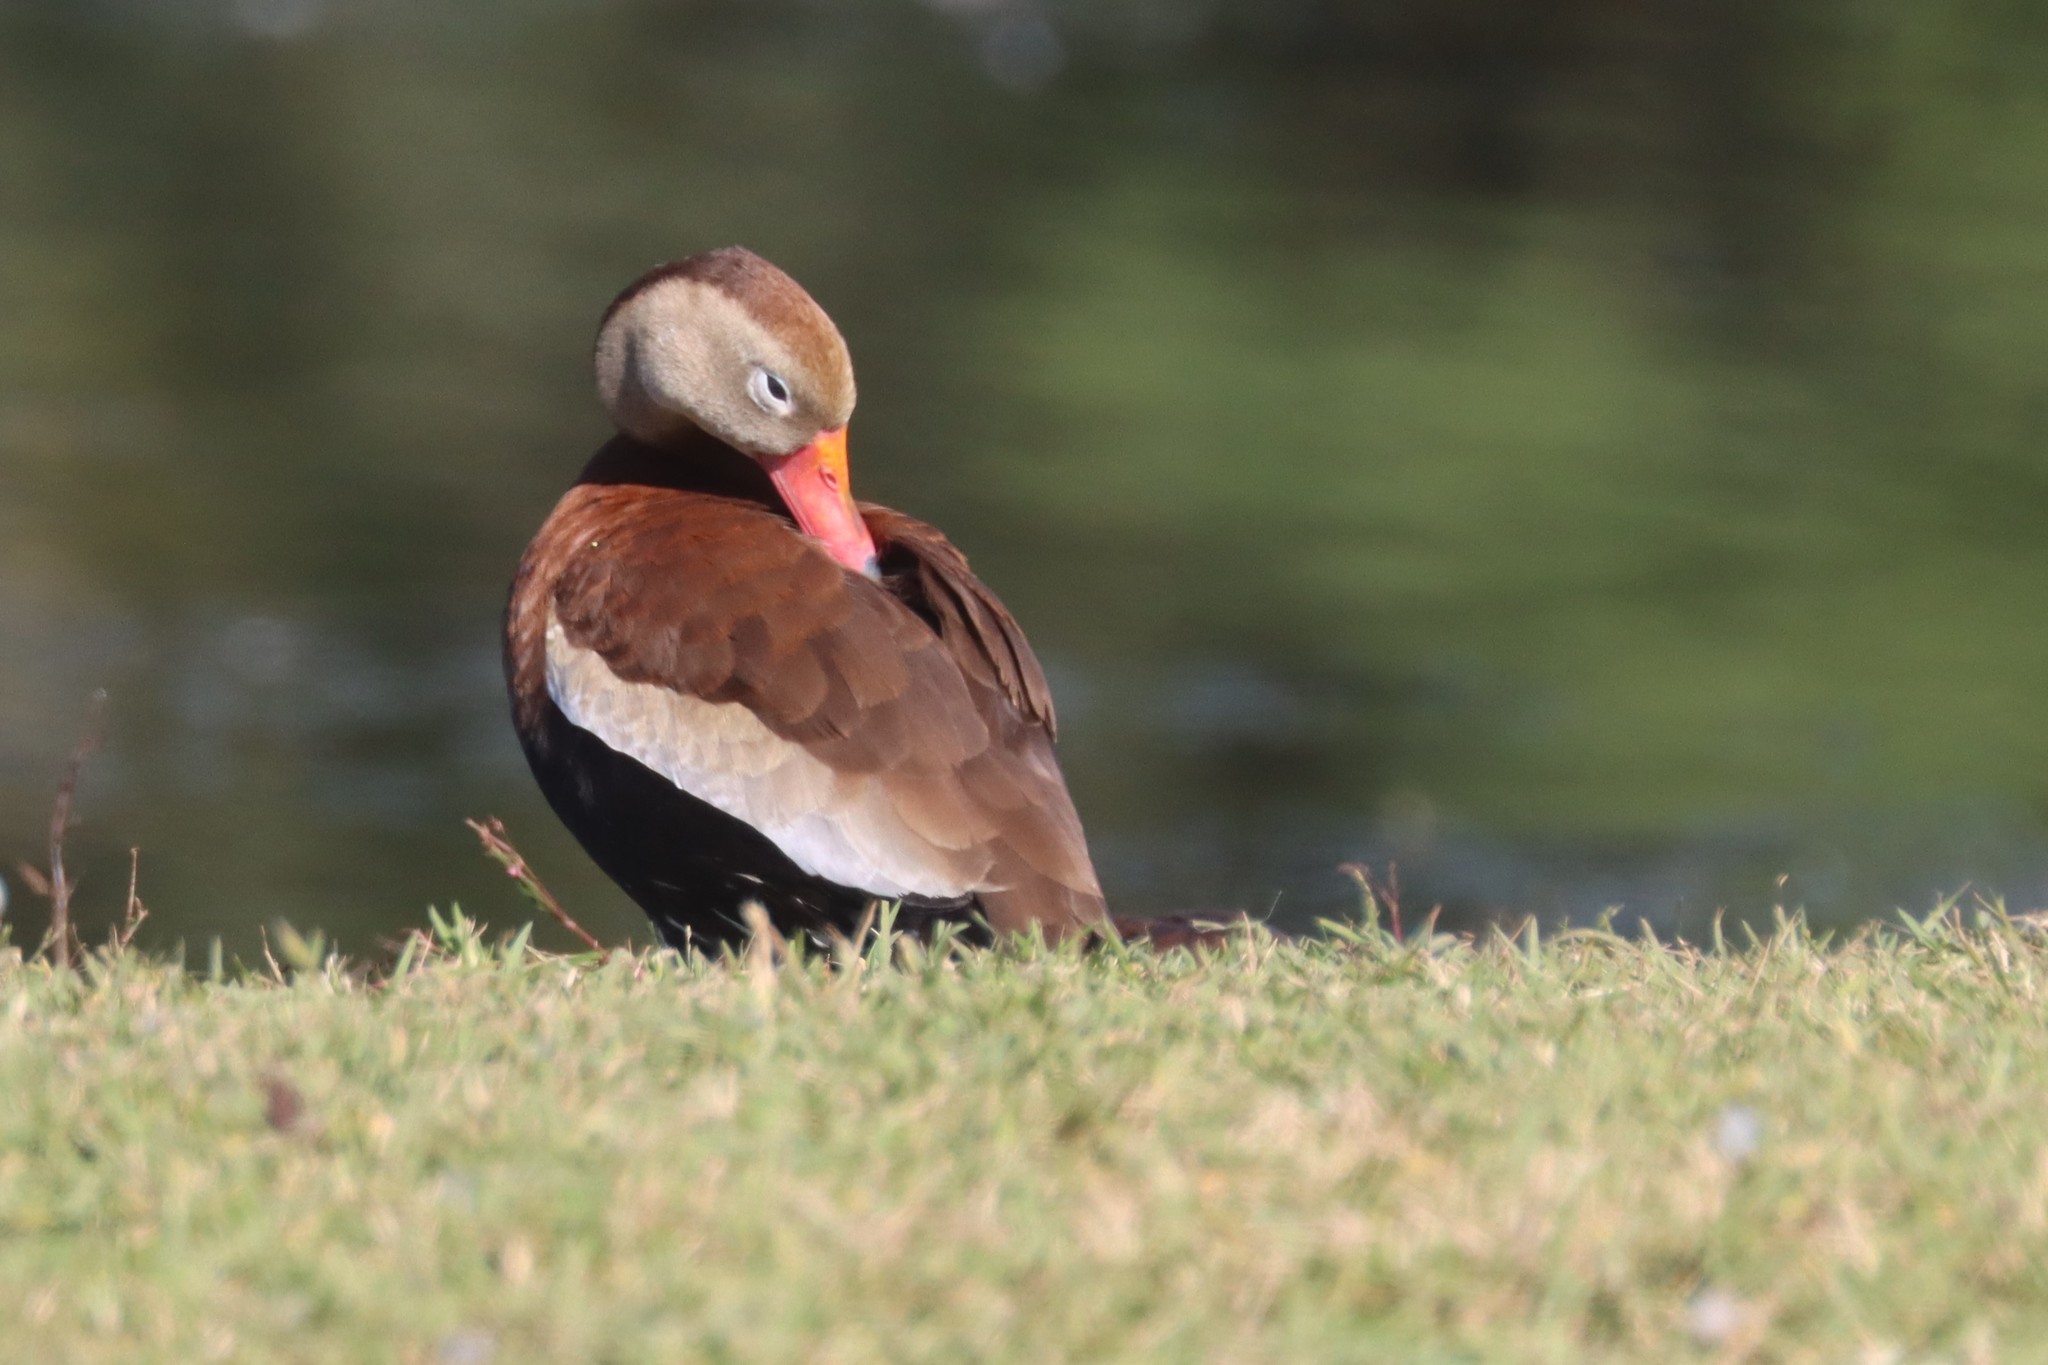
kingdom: Animalia
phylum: Chordata
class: Aves
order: Anseriformes
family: Anatidae
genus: Dendrocygna
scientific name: Dendrocygna autumnalis
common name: Black-bellied whistling duck
